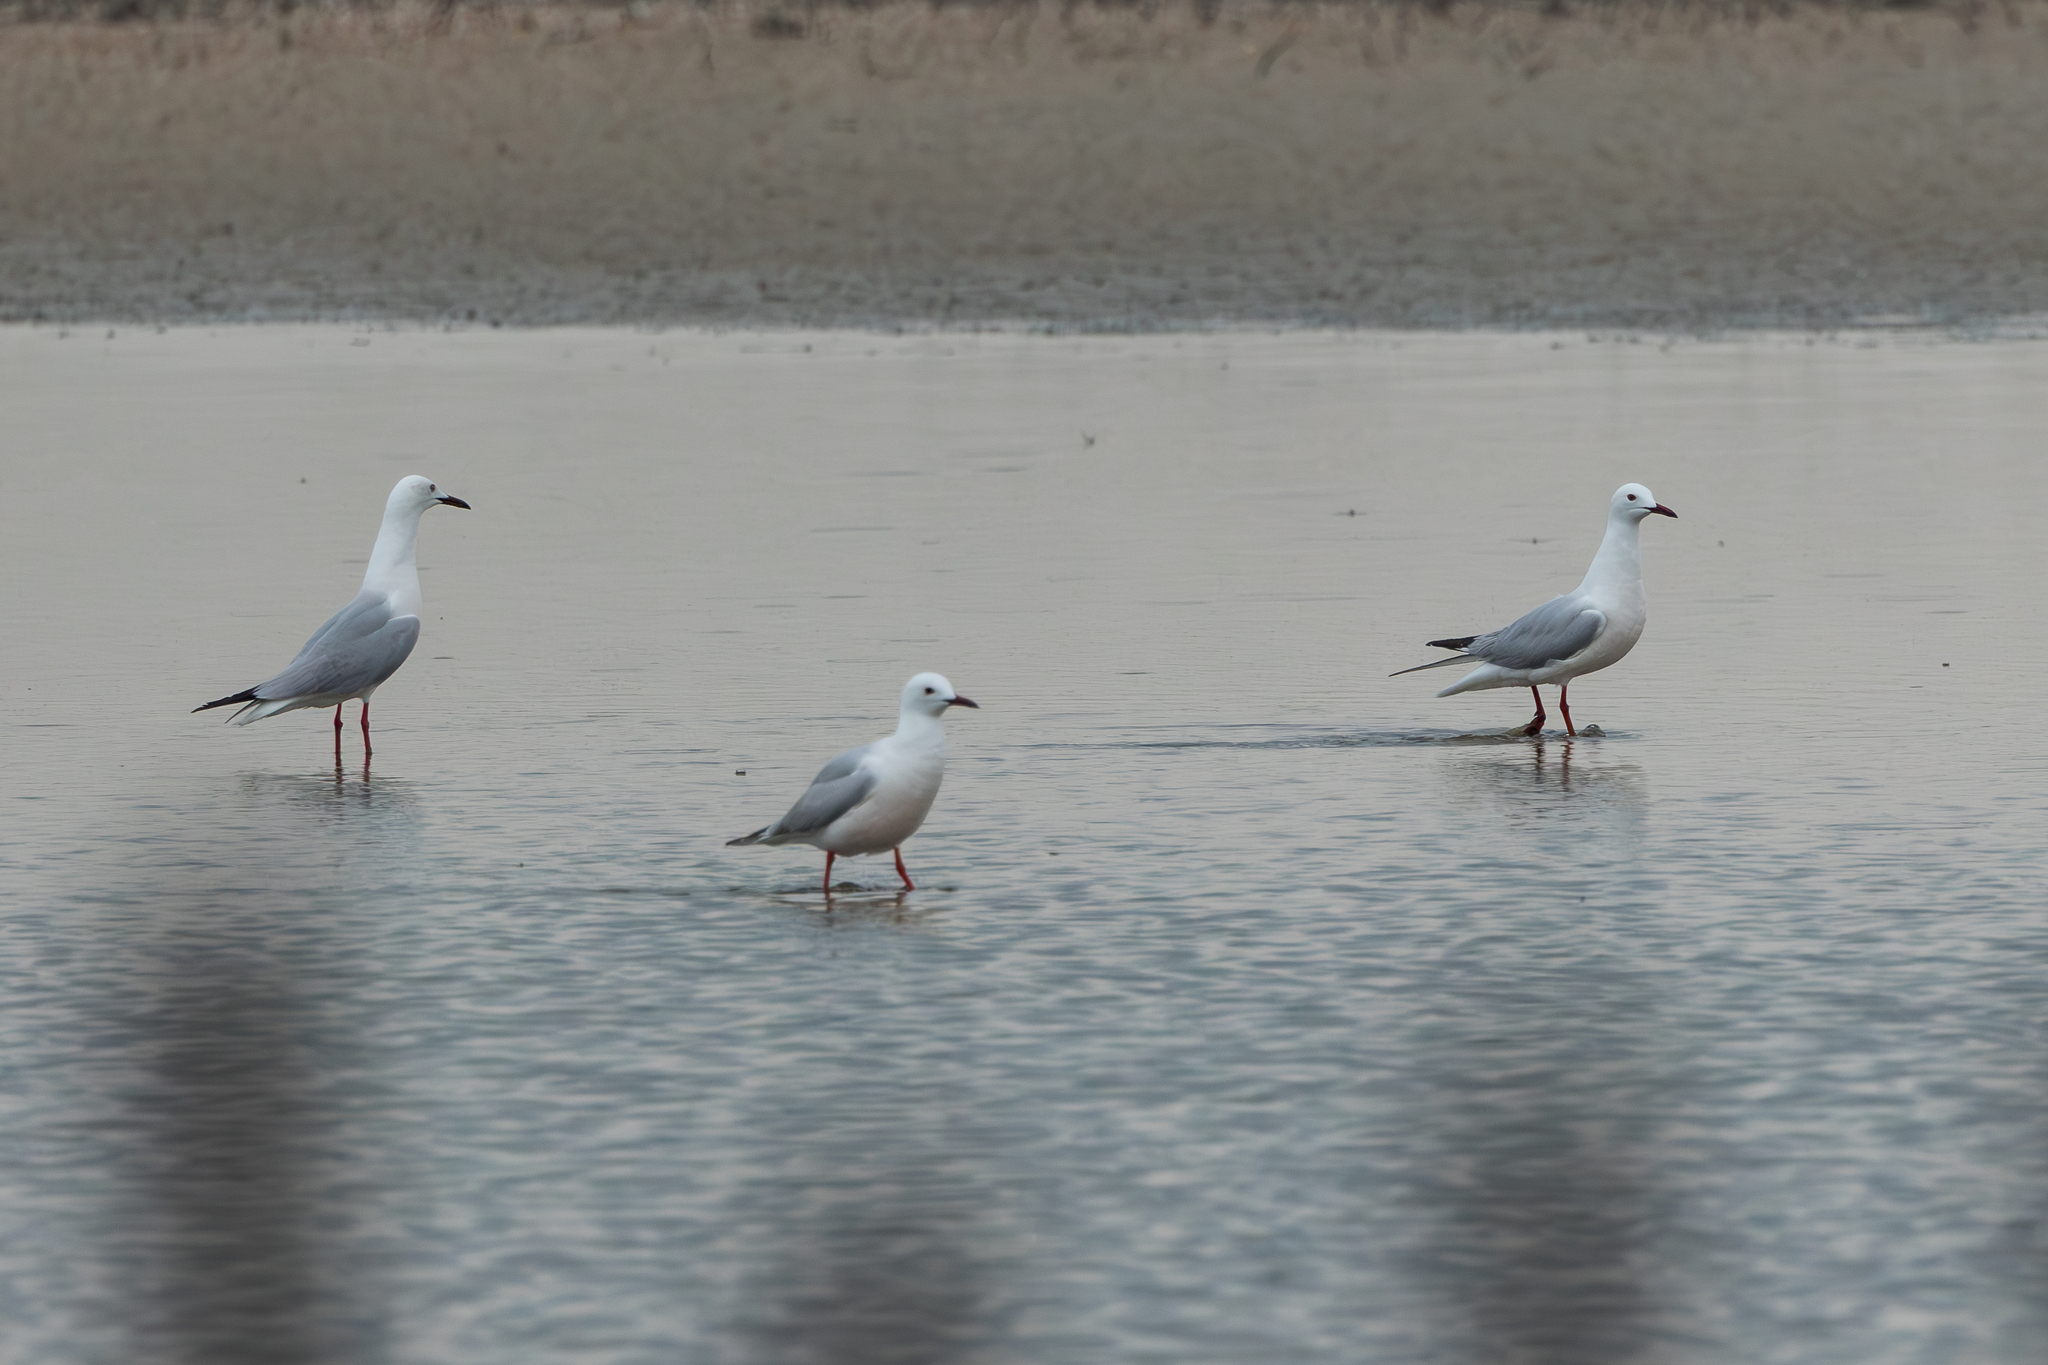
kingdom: Animalia
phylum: Chordata
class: Aves
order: Charadriiformes
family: Laridae
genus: Chroicocephalus
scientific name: Chroicocephalus genei
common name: Slender-billed gull
